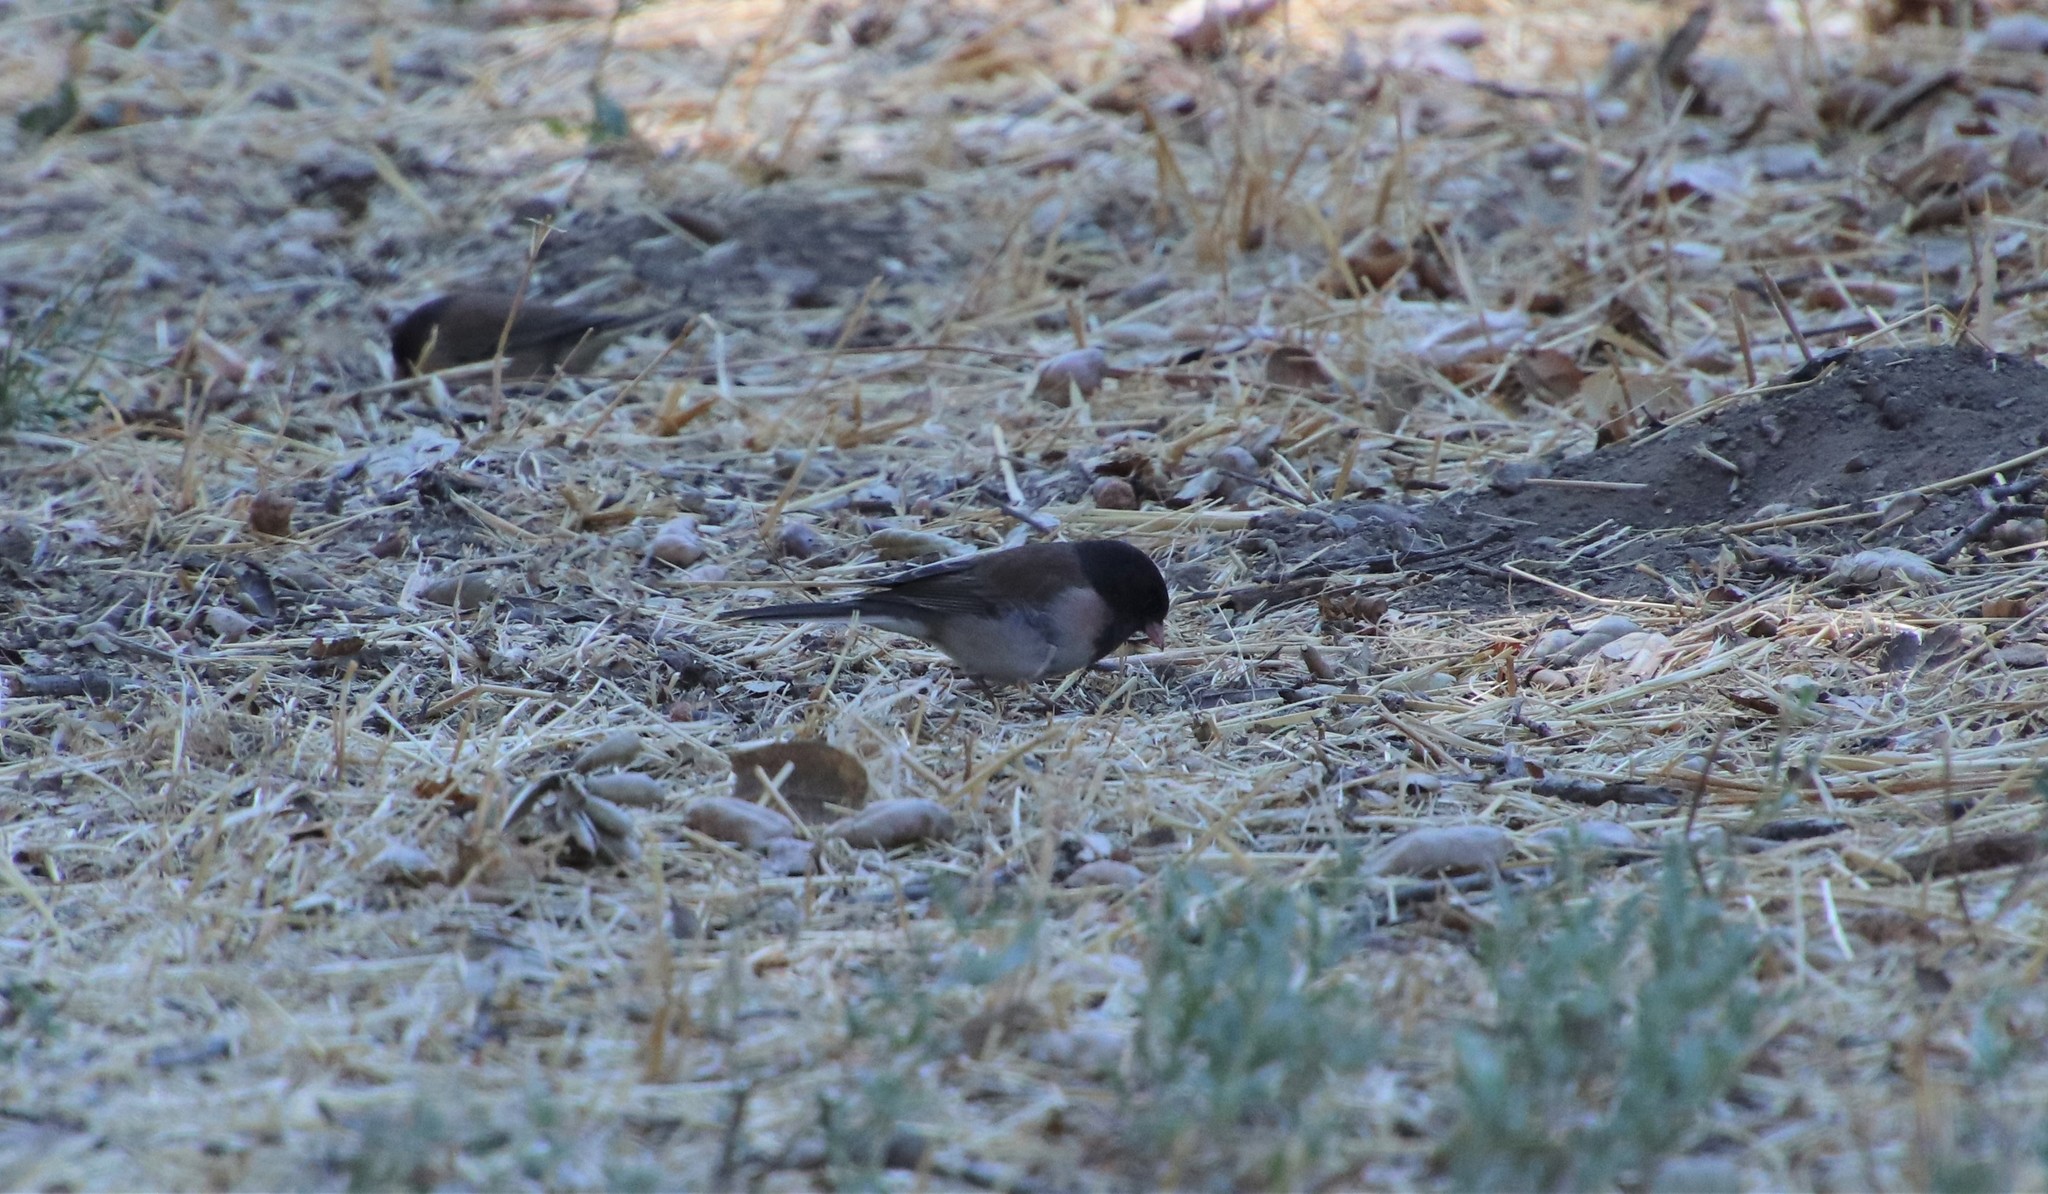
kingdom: Animalia
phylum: Chordata
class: Aves
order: Passeriformes
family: Passerellidae
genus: Junco
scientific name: Junco hyemalis
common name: Dark-eyed junco
